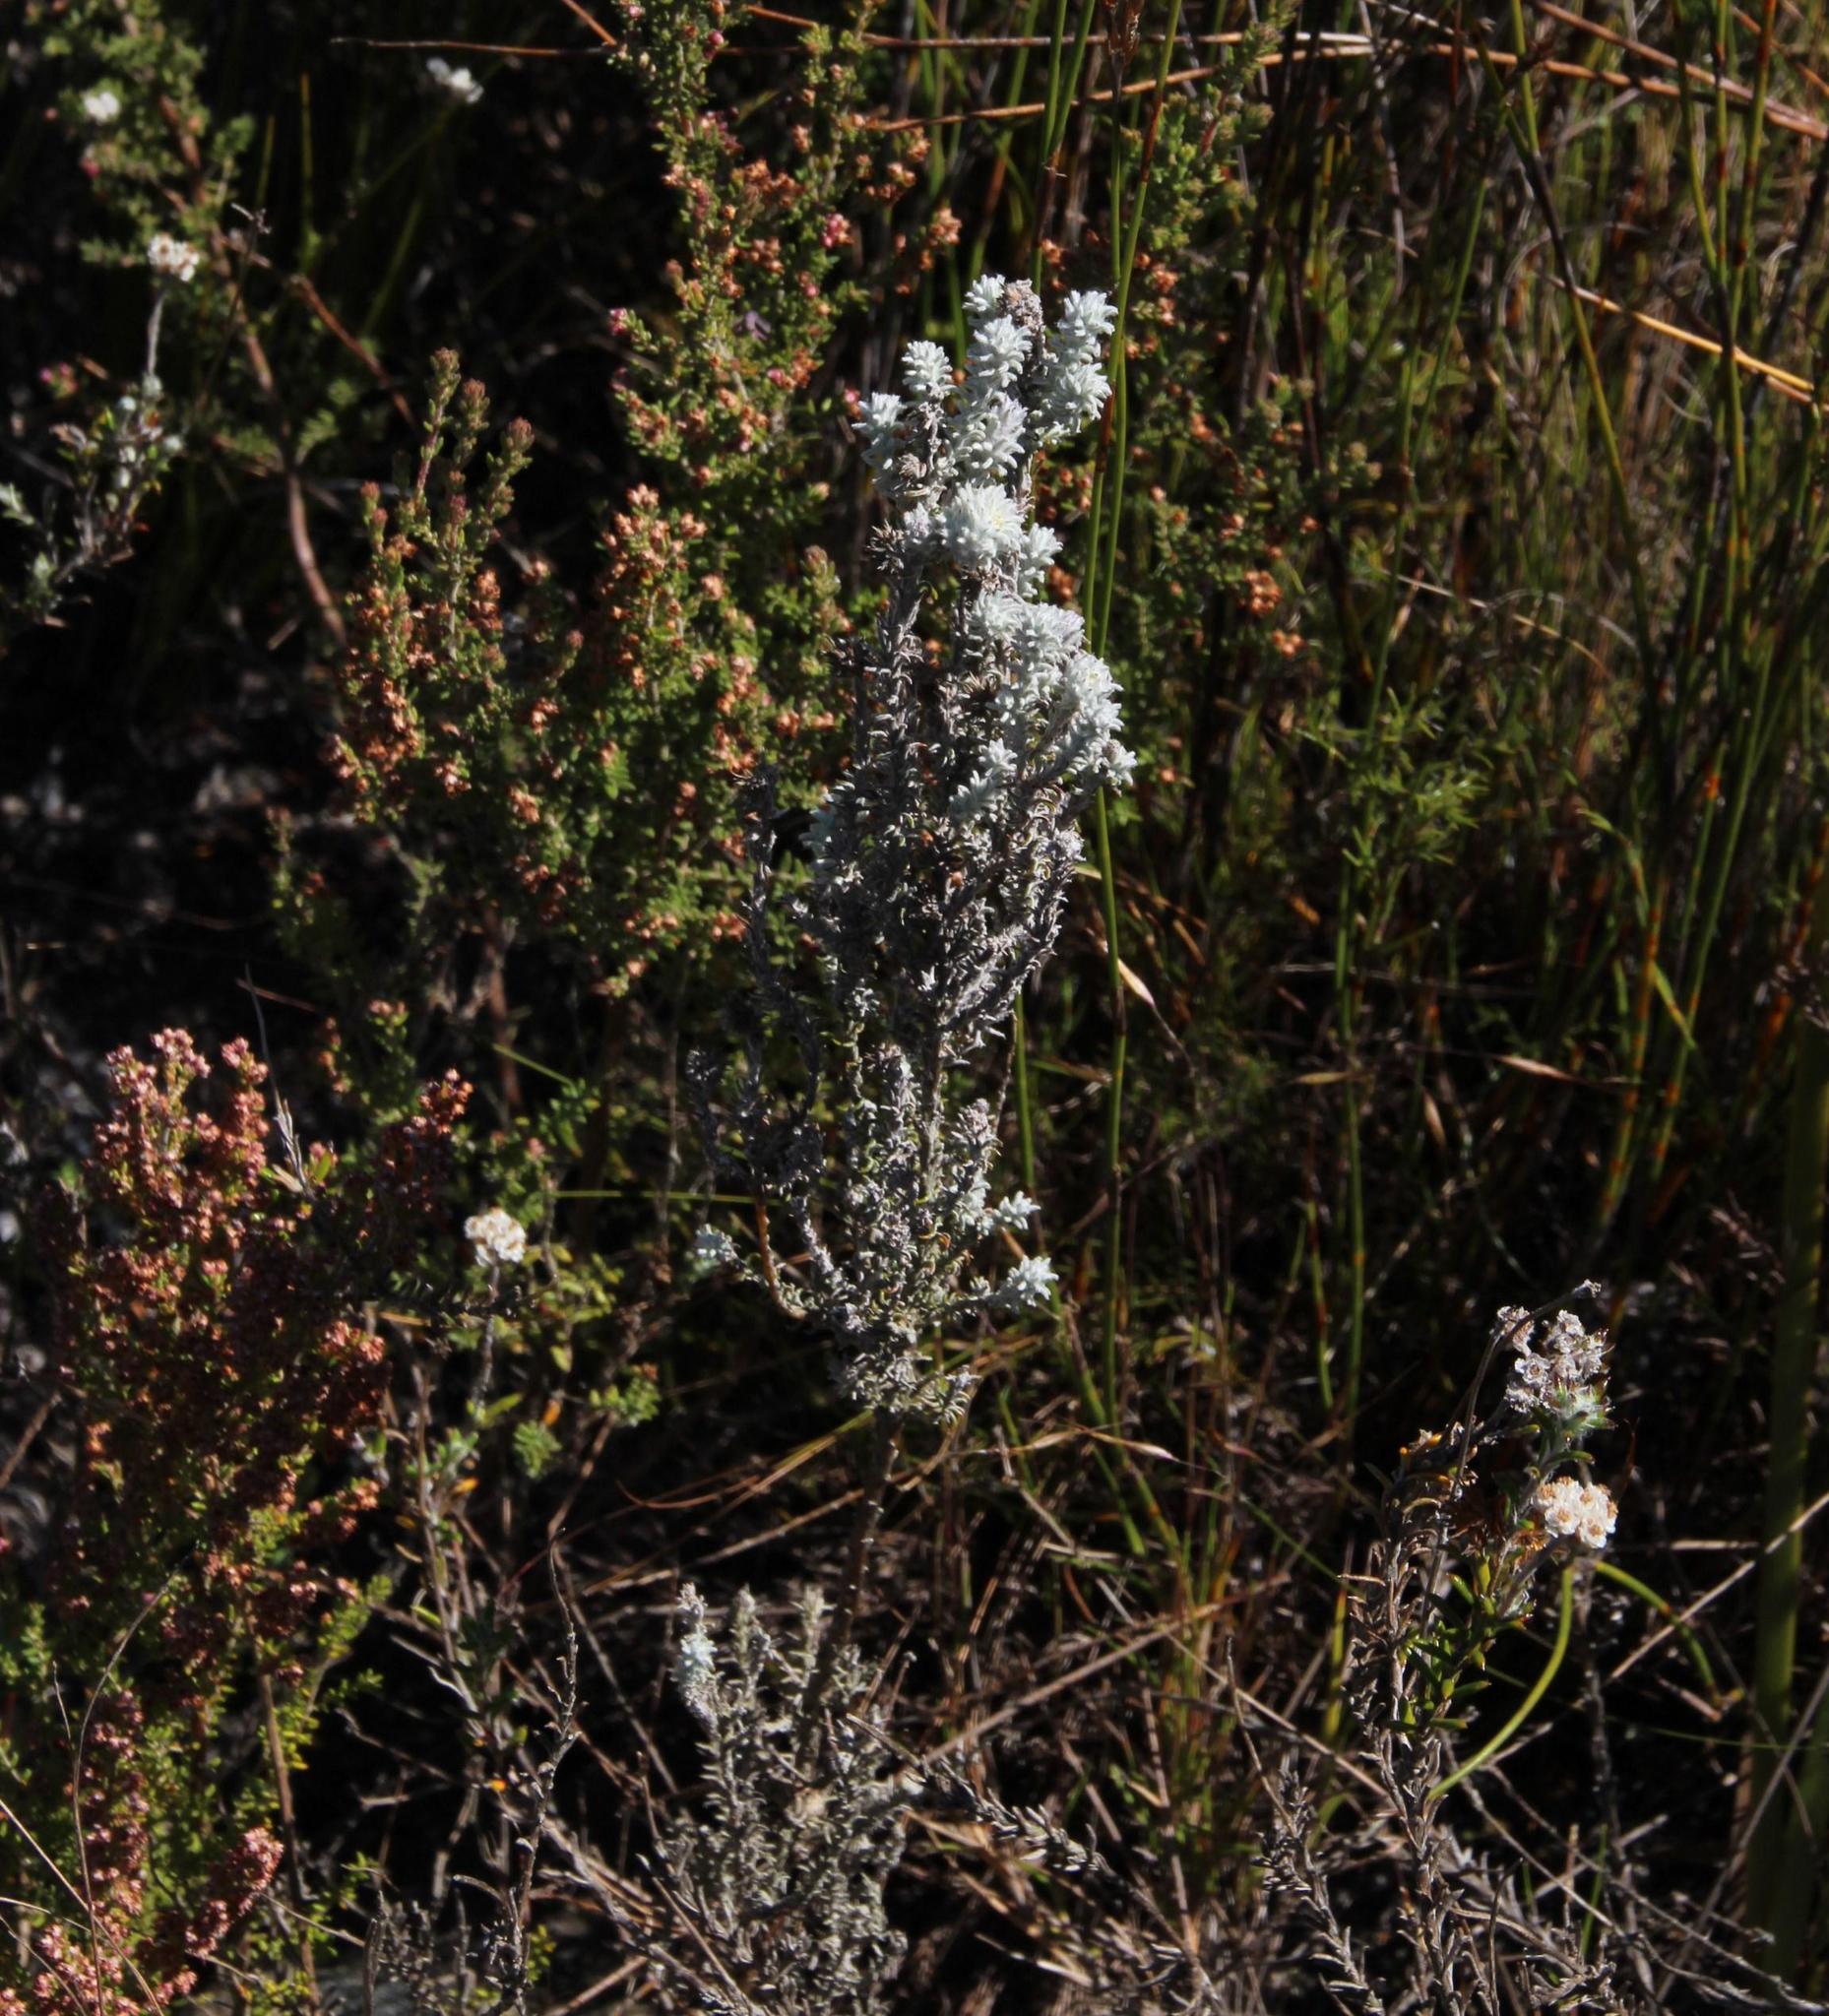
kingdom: Plantae
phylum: Tracheophyta
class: Magnoliopsida
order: Asterales
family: Asteraceae
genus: Anaxeton
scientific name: Anaxeton brevipes
